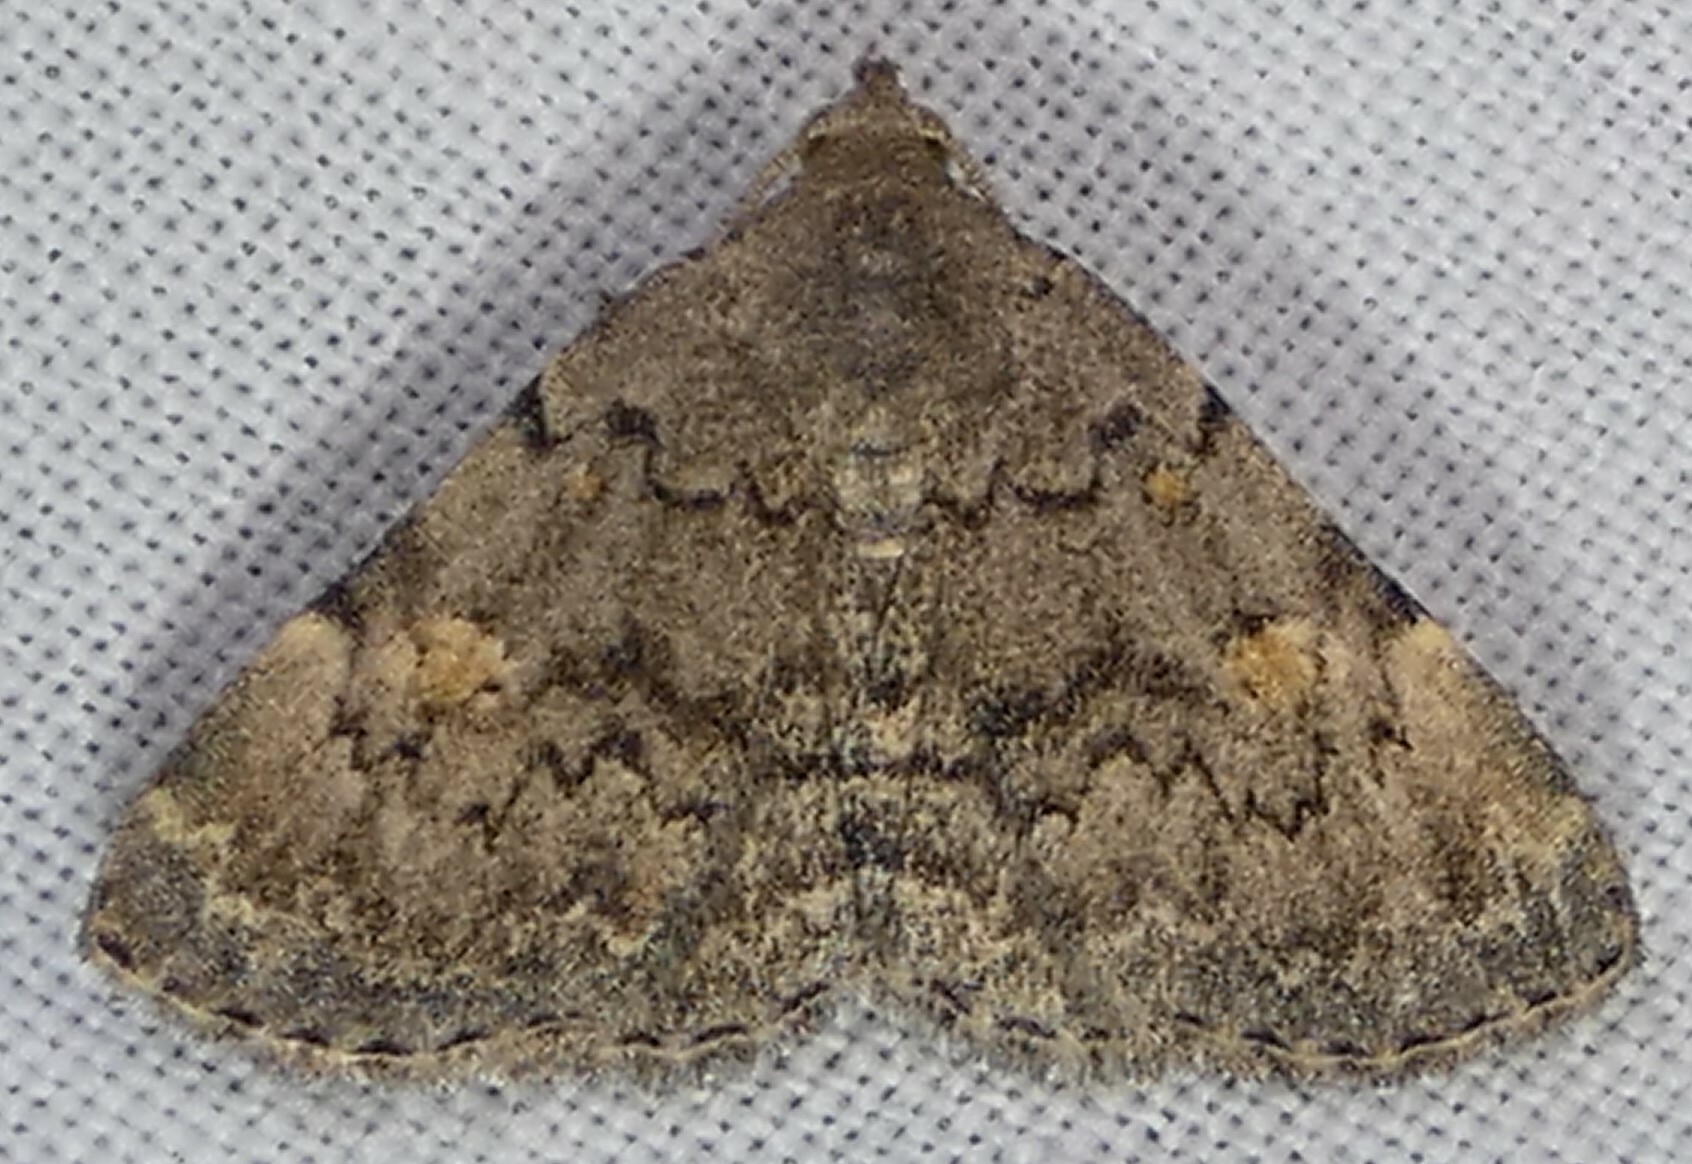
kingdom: Animalia
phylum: Arthropoda
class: Insecta
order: Lepidoptera
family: Erebidae
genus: Idia
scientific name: Idia aemula
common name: Common idia moth
